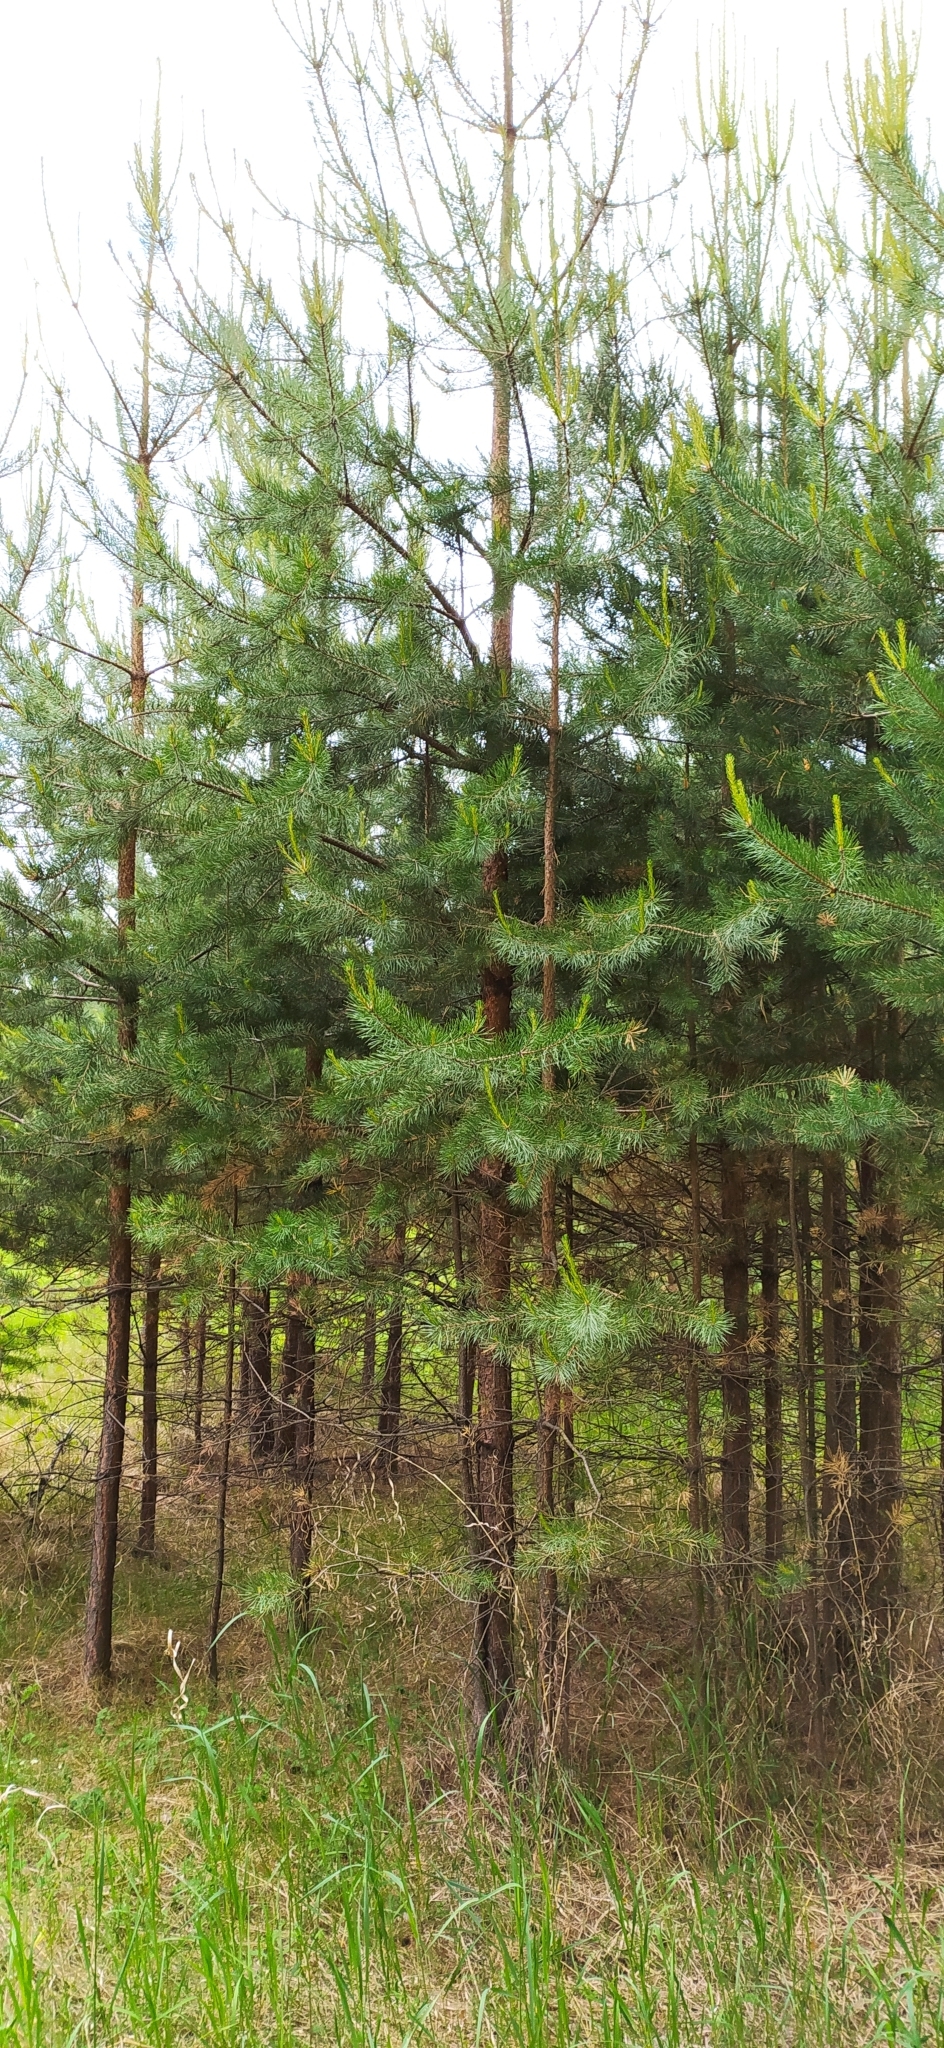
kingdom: Plantae
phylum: Tracheophyta
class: Pinopsida
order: Pinales
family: Pinaceae
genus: Pinus
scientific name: Pinus sylvestris
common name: Scots pine
